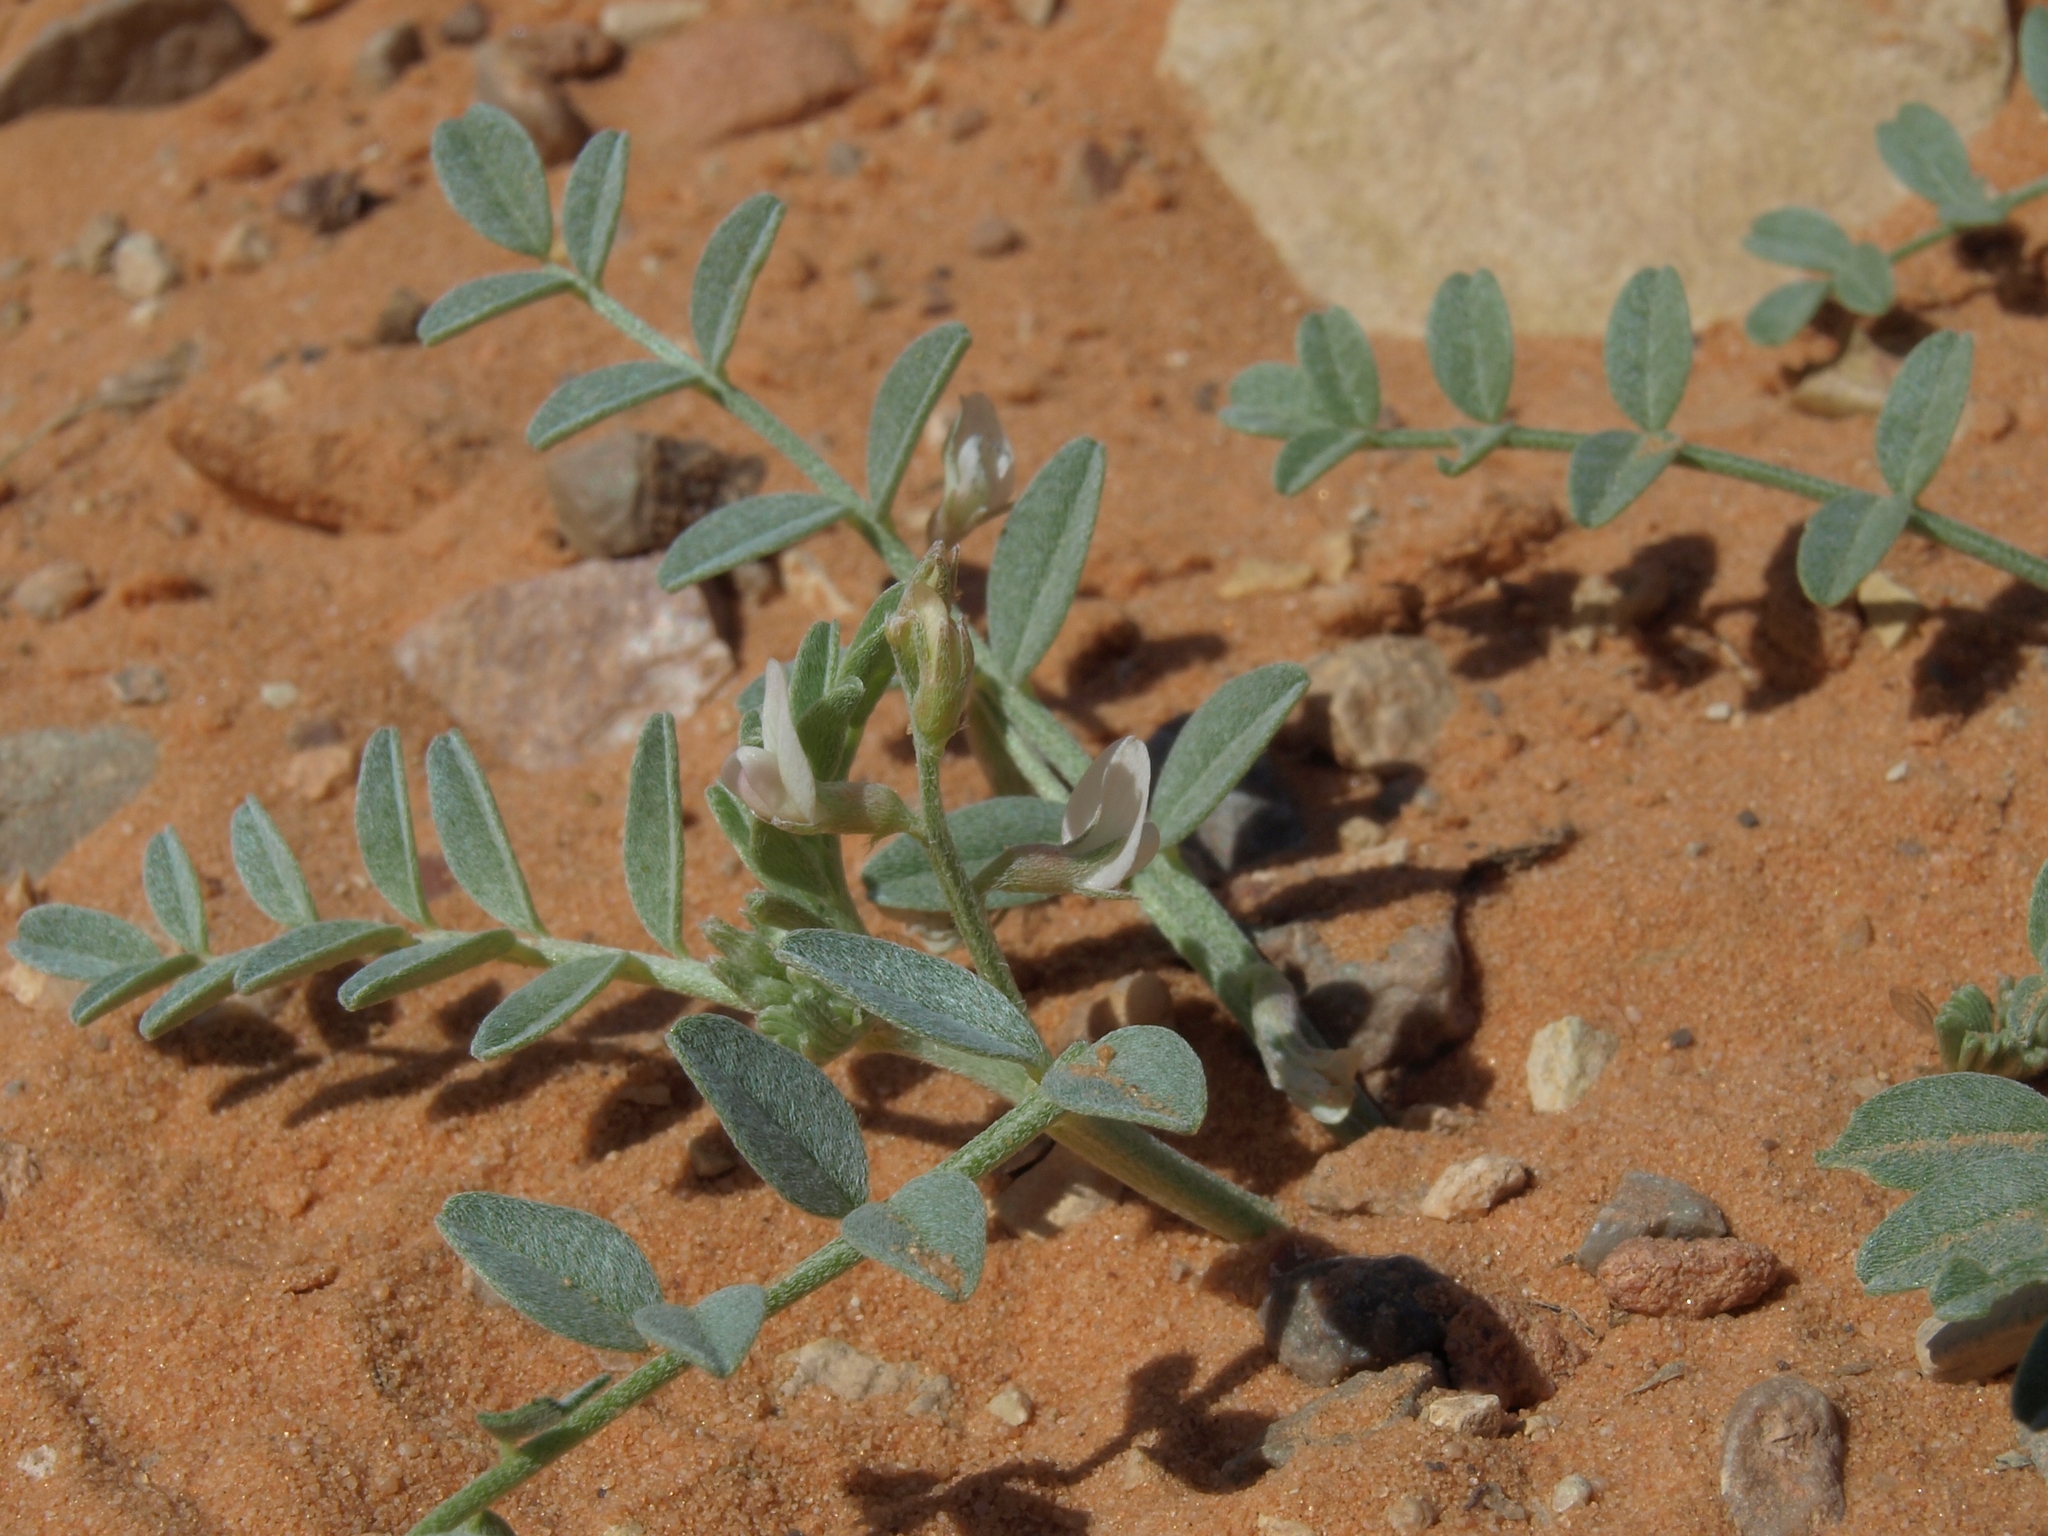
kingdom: Plantae
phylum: Tracheophyta
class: Magnoliopsida
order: Fabales
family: Fabaceae
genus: Astragalus
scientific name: Astragalus geyeri
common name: Geyer's milkvetch
